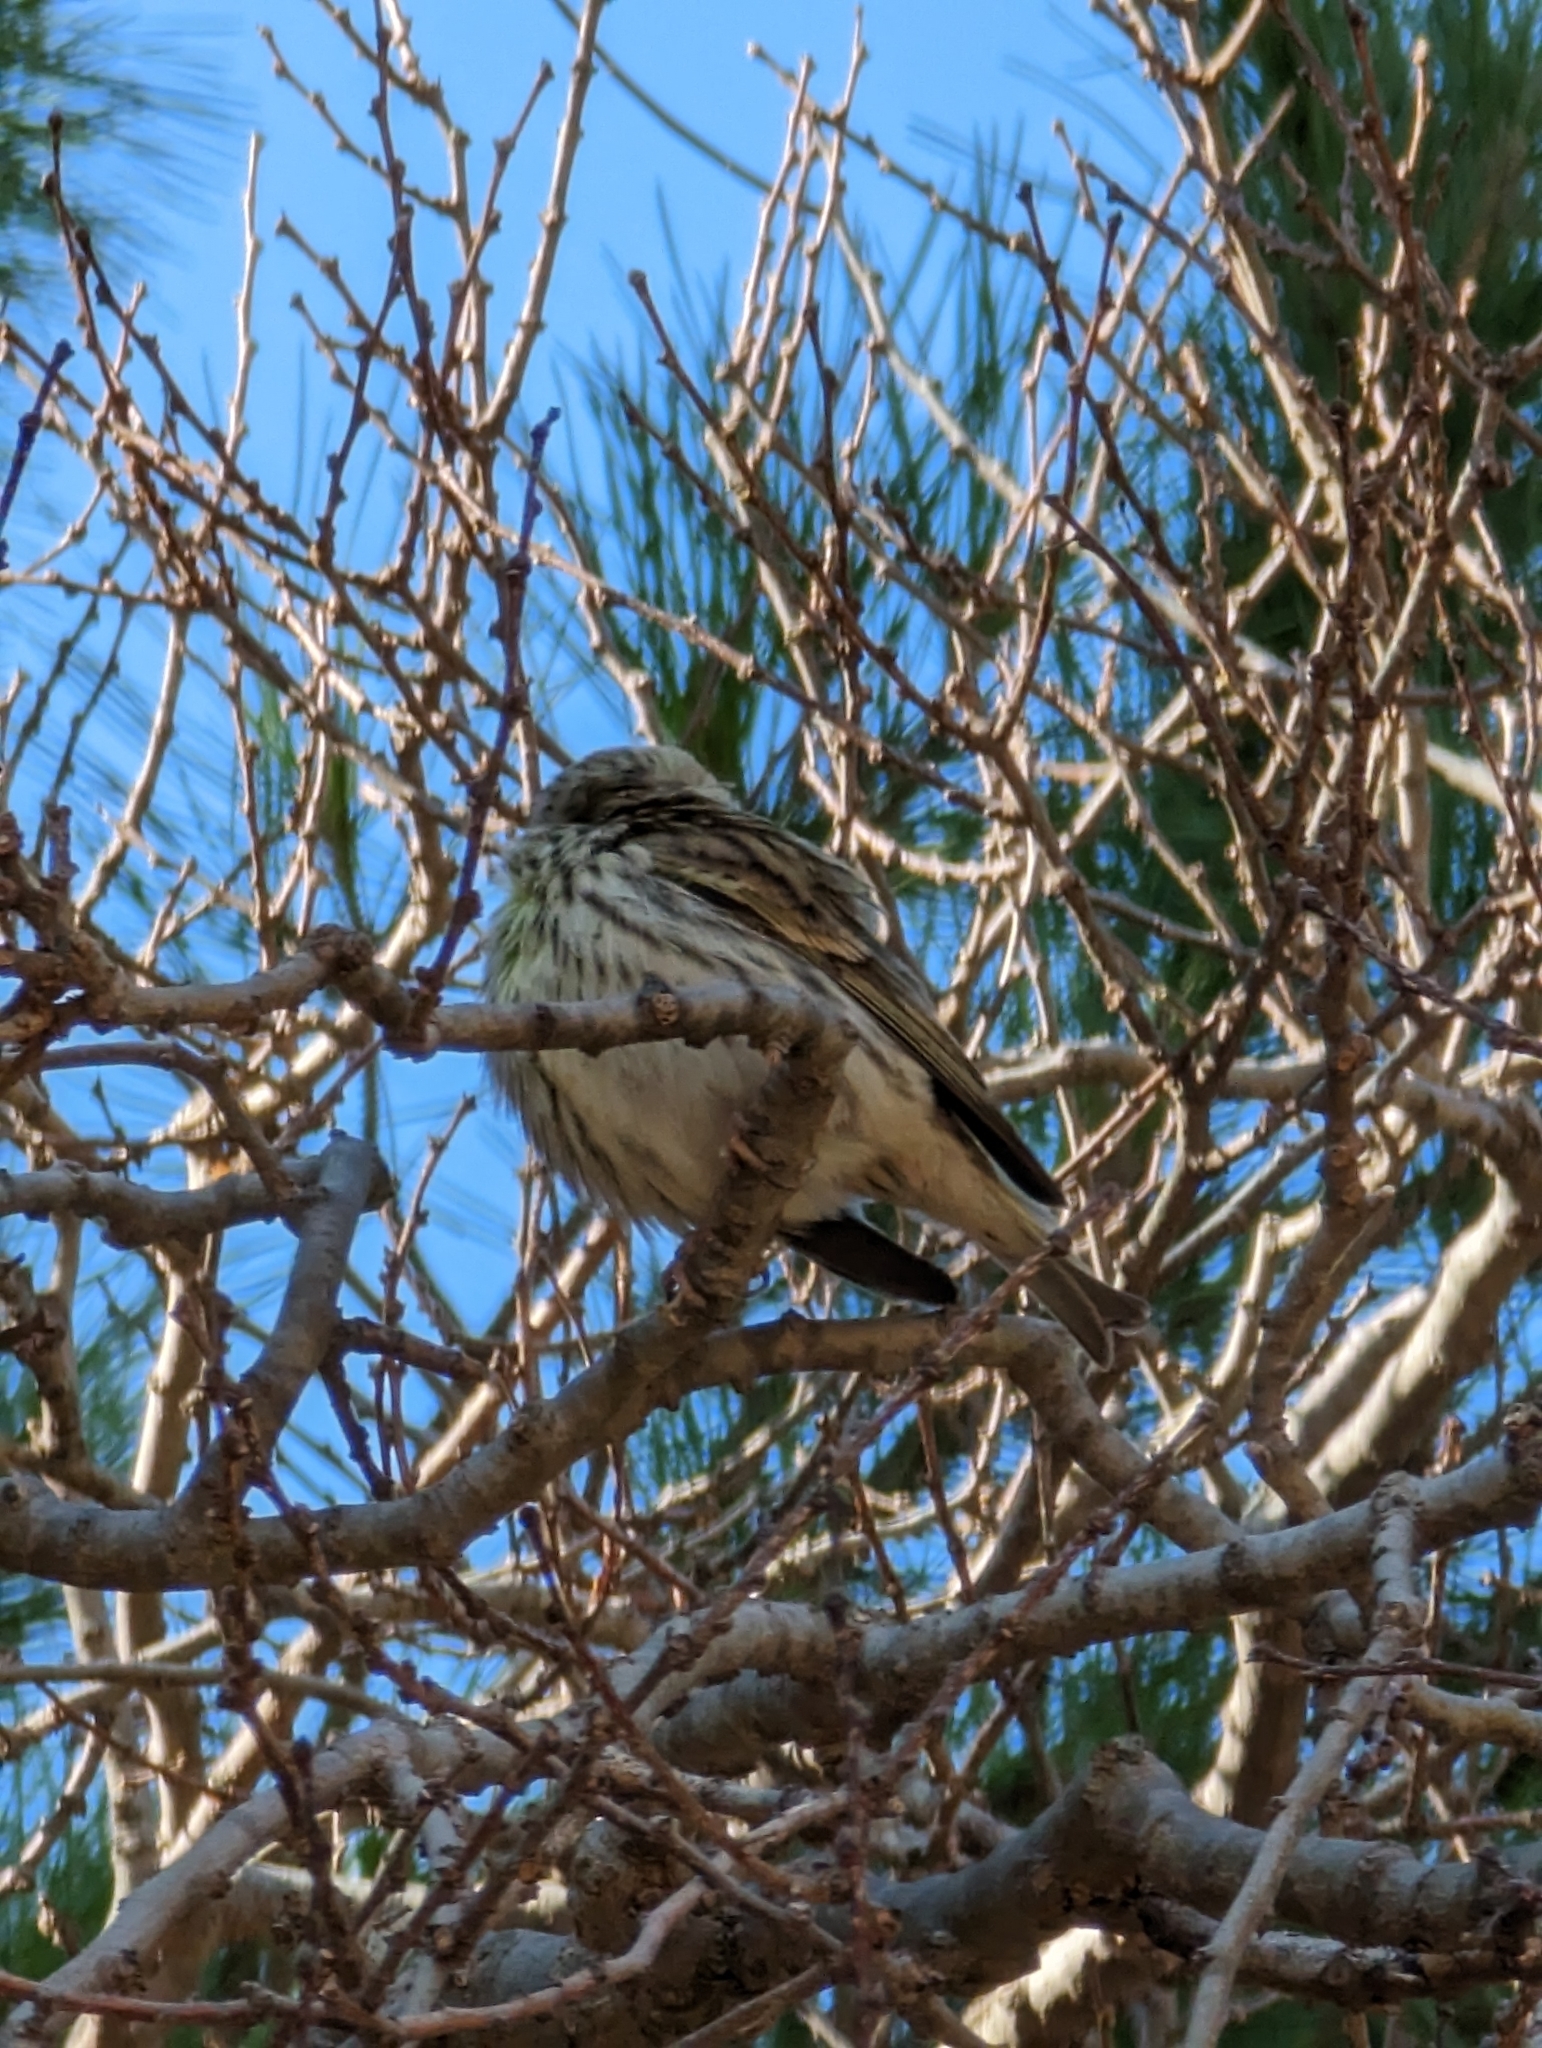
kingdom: Animalia
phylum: Chordata
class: Aves
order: Passeriformes
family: Fringillidae
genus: Serinus
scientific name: Serinus serinus
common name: European serin
